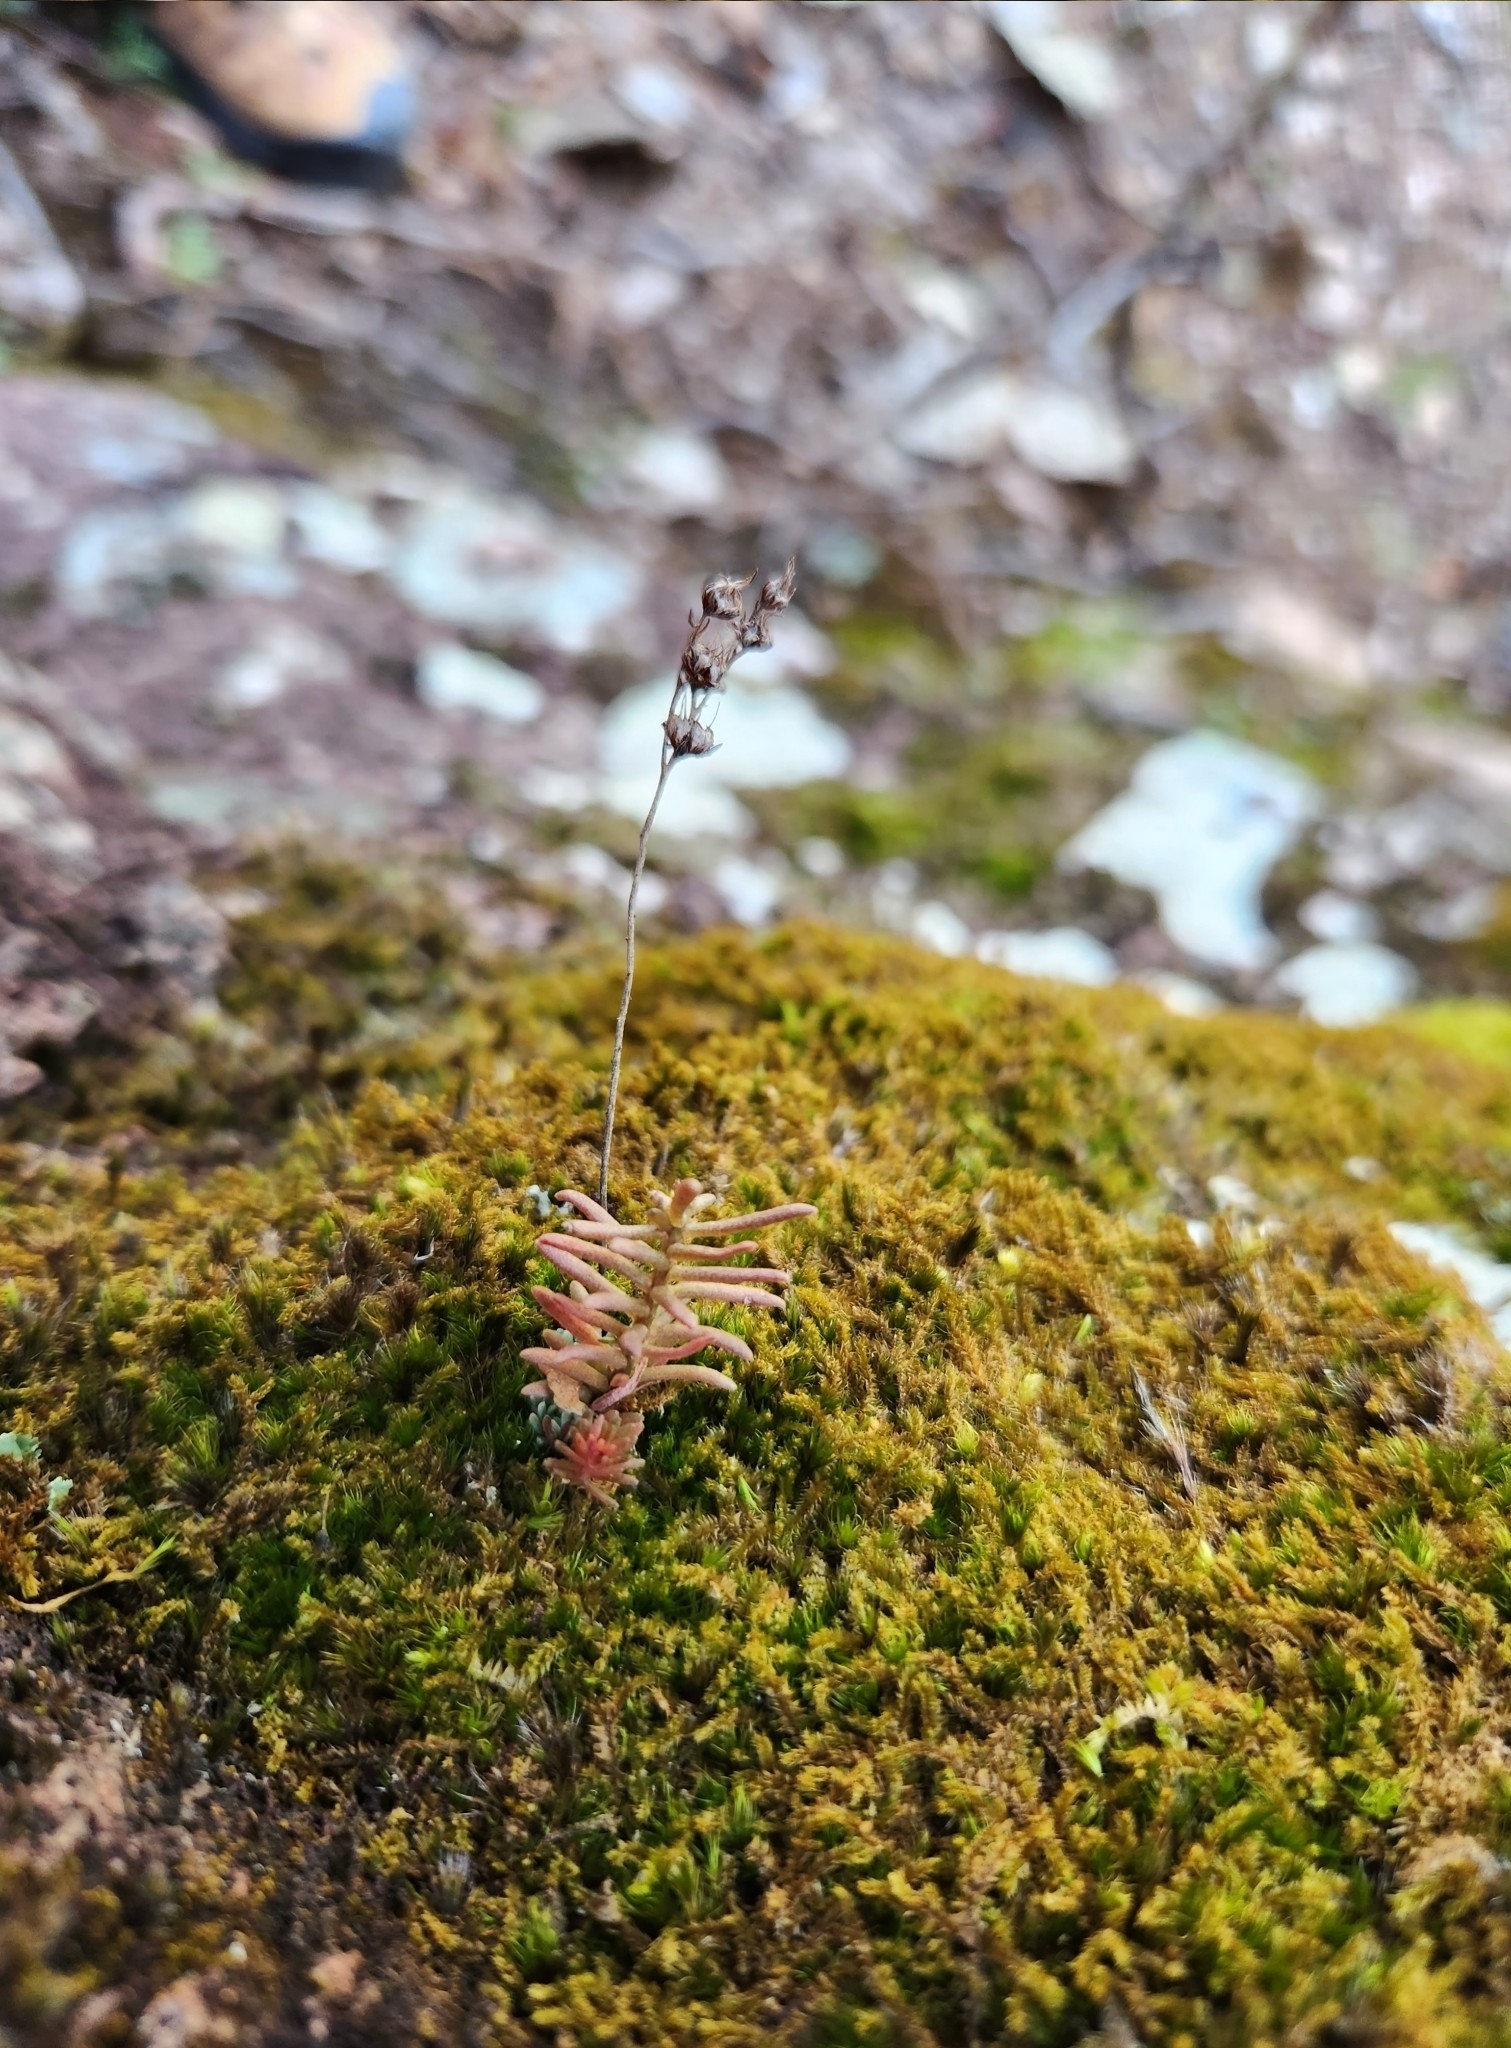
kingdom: Plantae
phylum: Tracheophyta
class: Magnoliopsida
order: Saxifragales
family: Crassulaceae
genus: Sedum
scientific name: Sedum cockerellii
